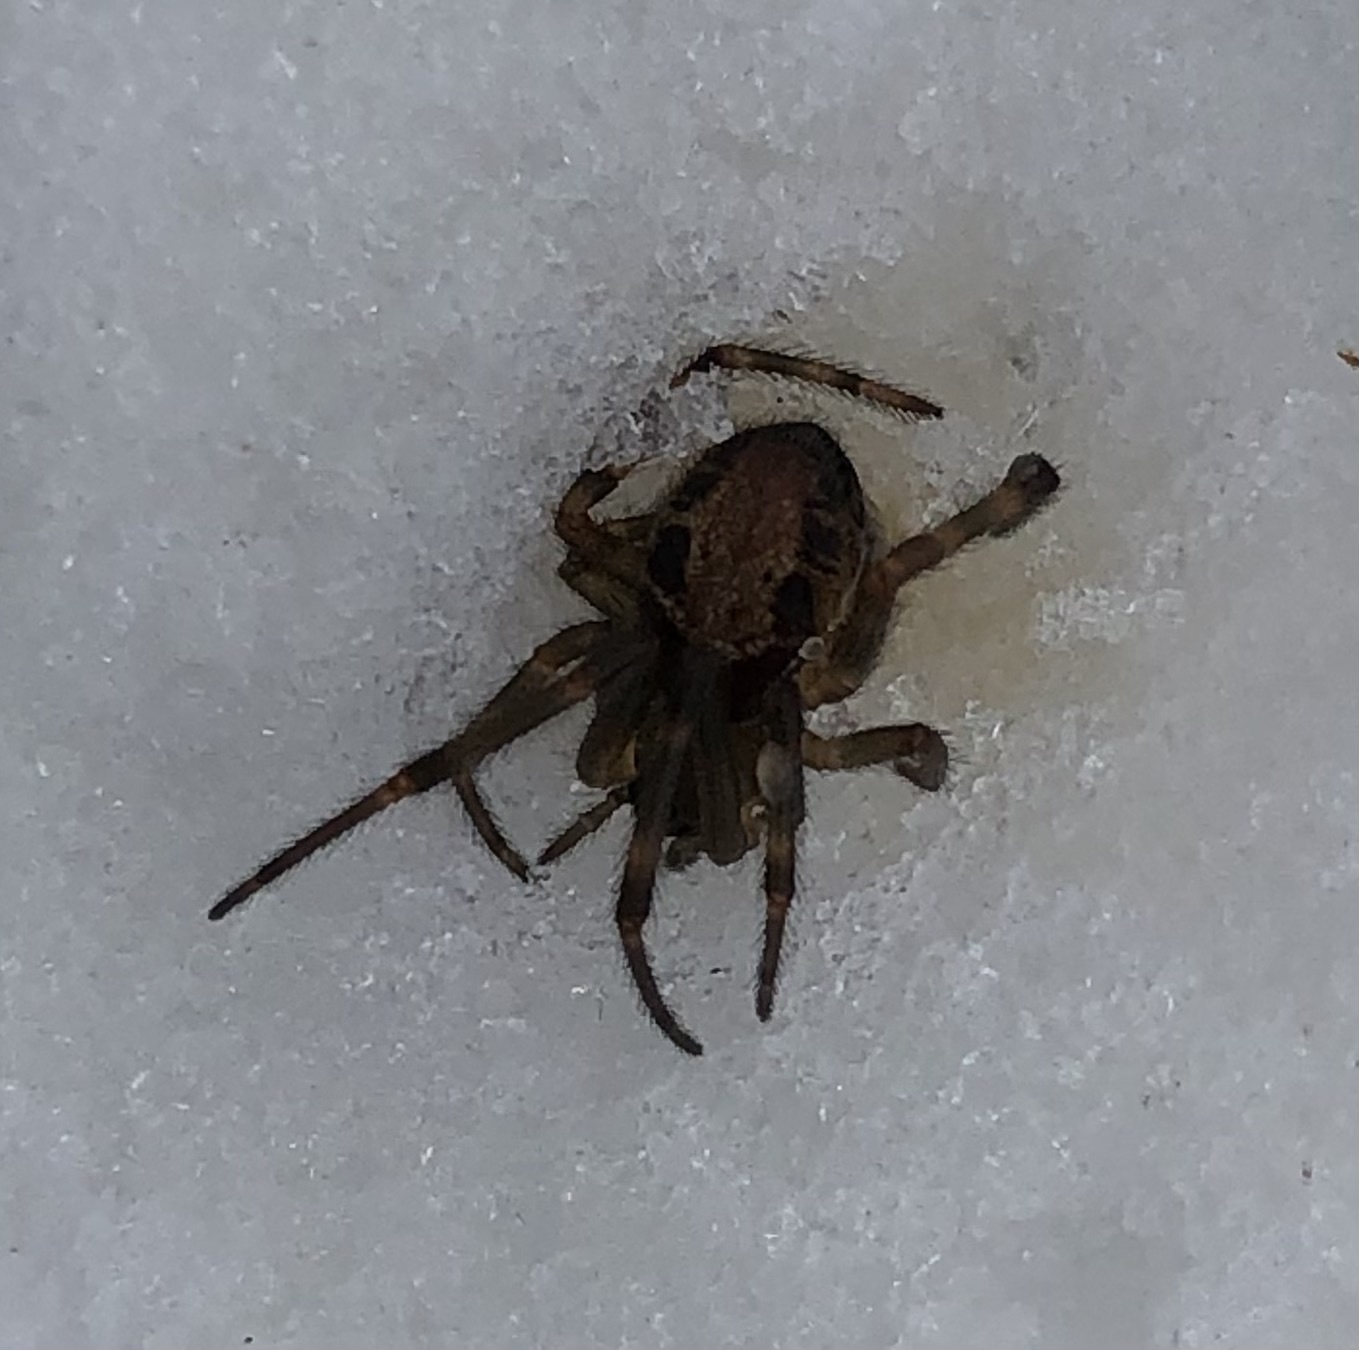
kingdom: Animalia
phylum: Arthropoda
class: Arachnida
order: Araneae
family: Theridiidae
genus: Steatoda
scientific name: Steatoda nobilis
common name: Cobweb weaver
